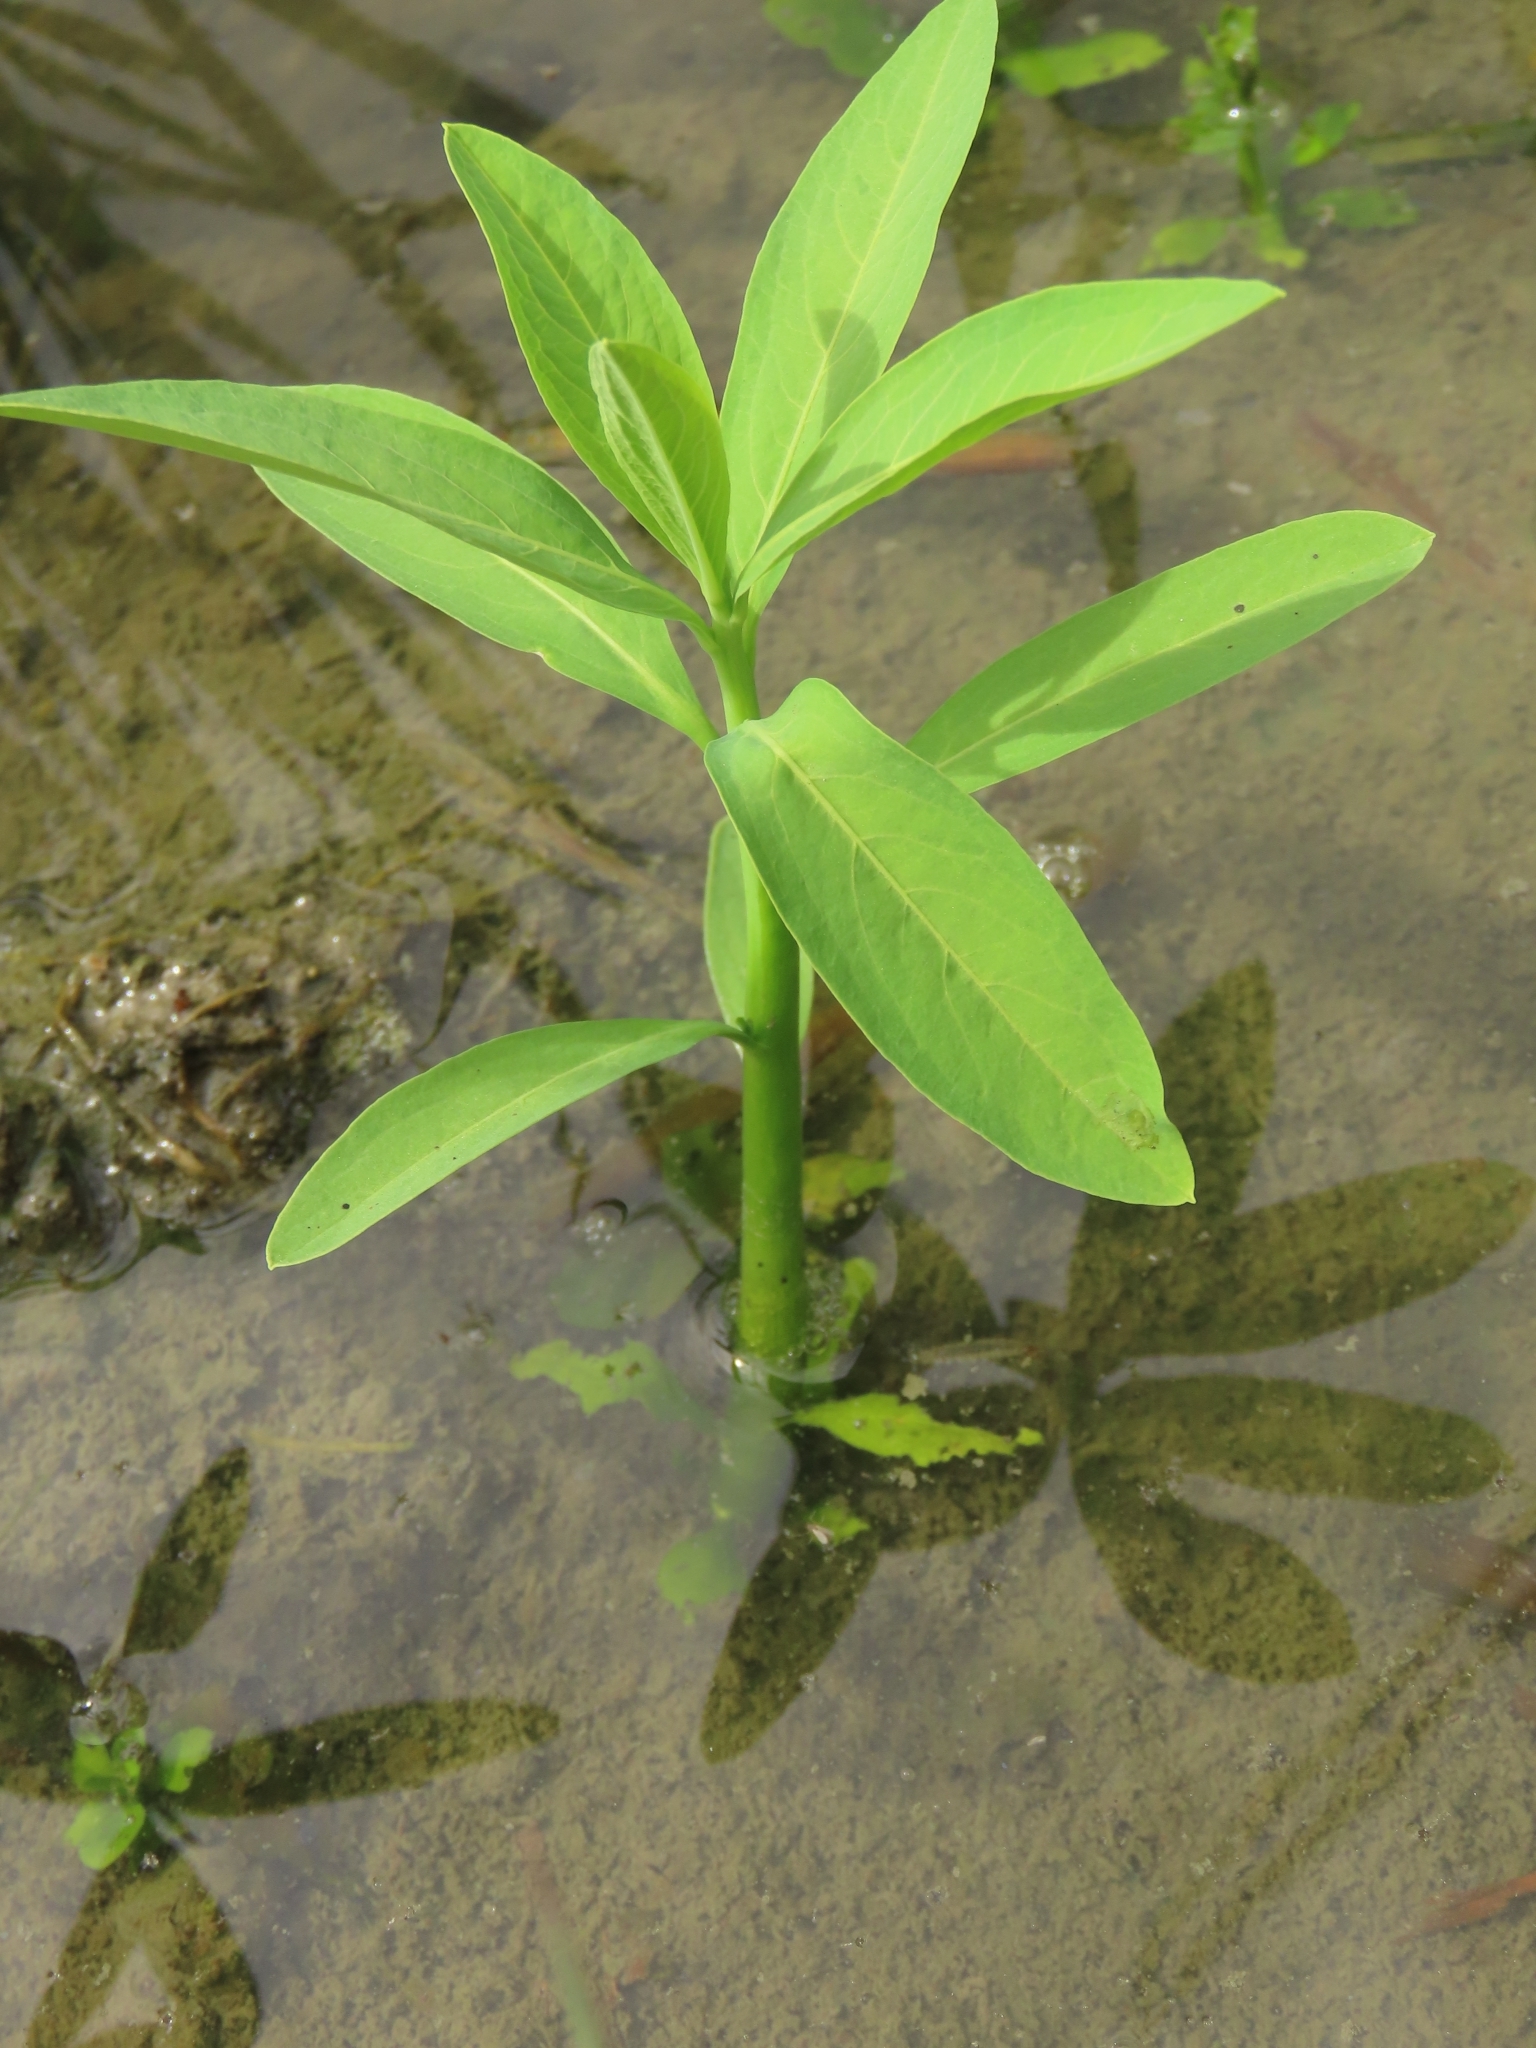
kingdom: Plantae
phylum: Tracheophyta
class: Magnoliopsida
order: Solanales
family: Sphenocleaceae
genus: Sphenoclea
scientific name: Sphenoclea zeylanica
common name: Chickenspike
